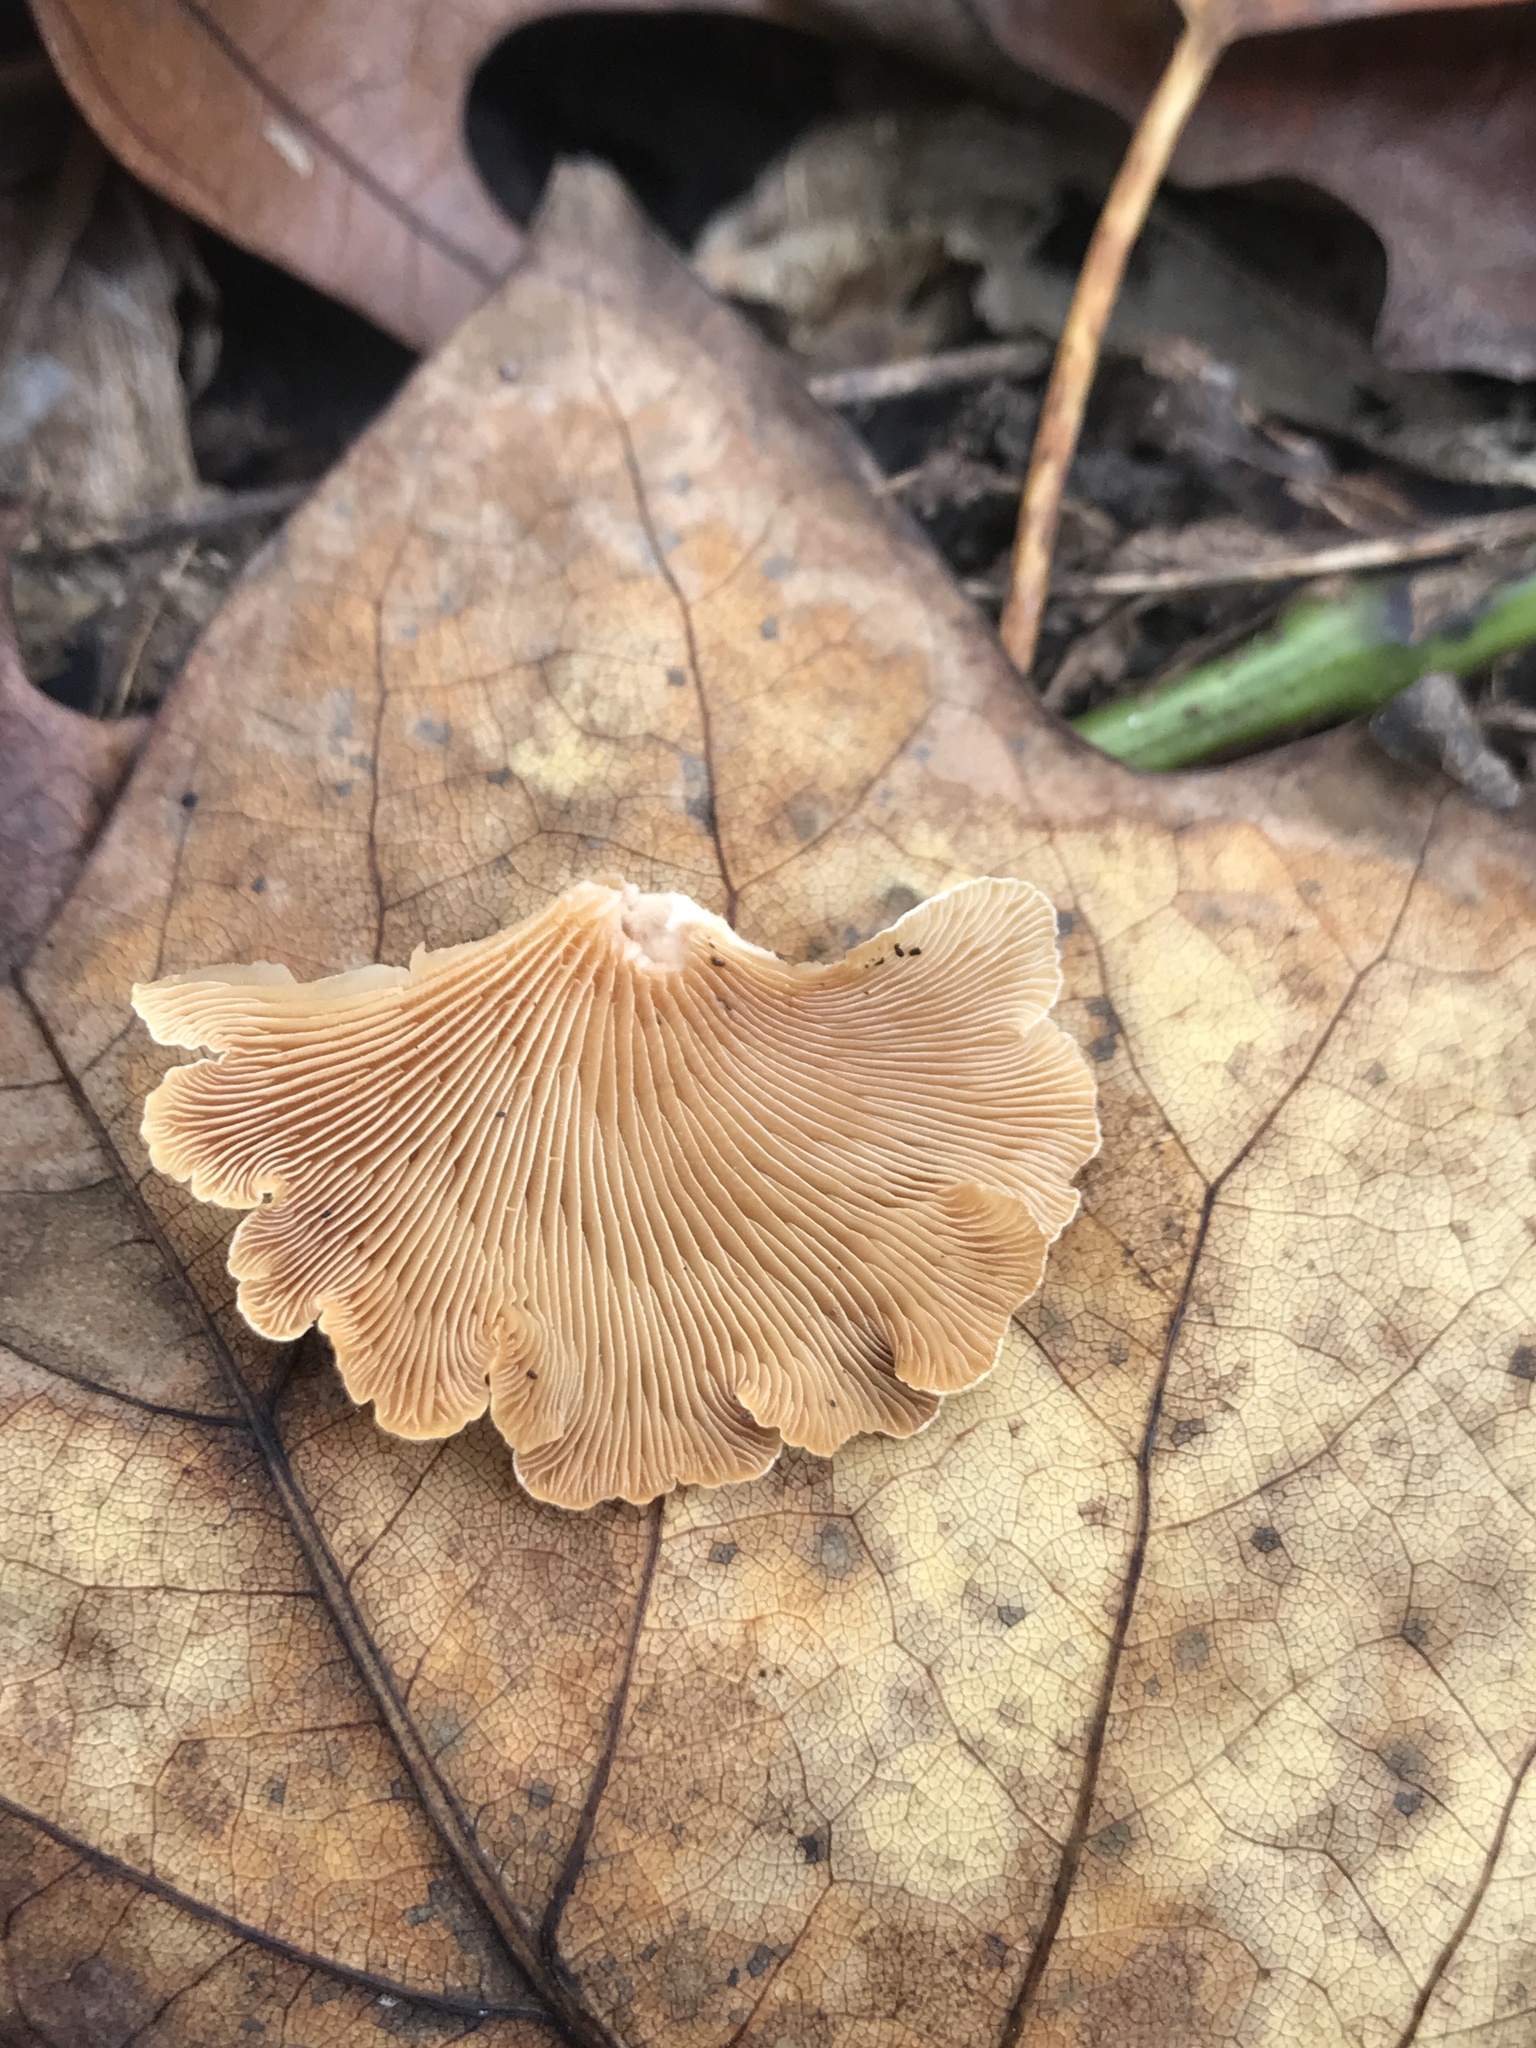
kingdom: Fungi
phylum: Basidiomycota
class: Agaricomycetes
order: Agaricales
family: Mycenaceae
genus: Panellus
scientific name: Panellus stipticus
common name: Bitter oysterling
